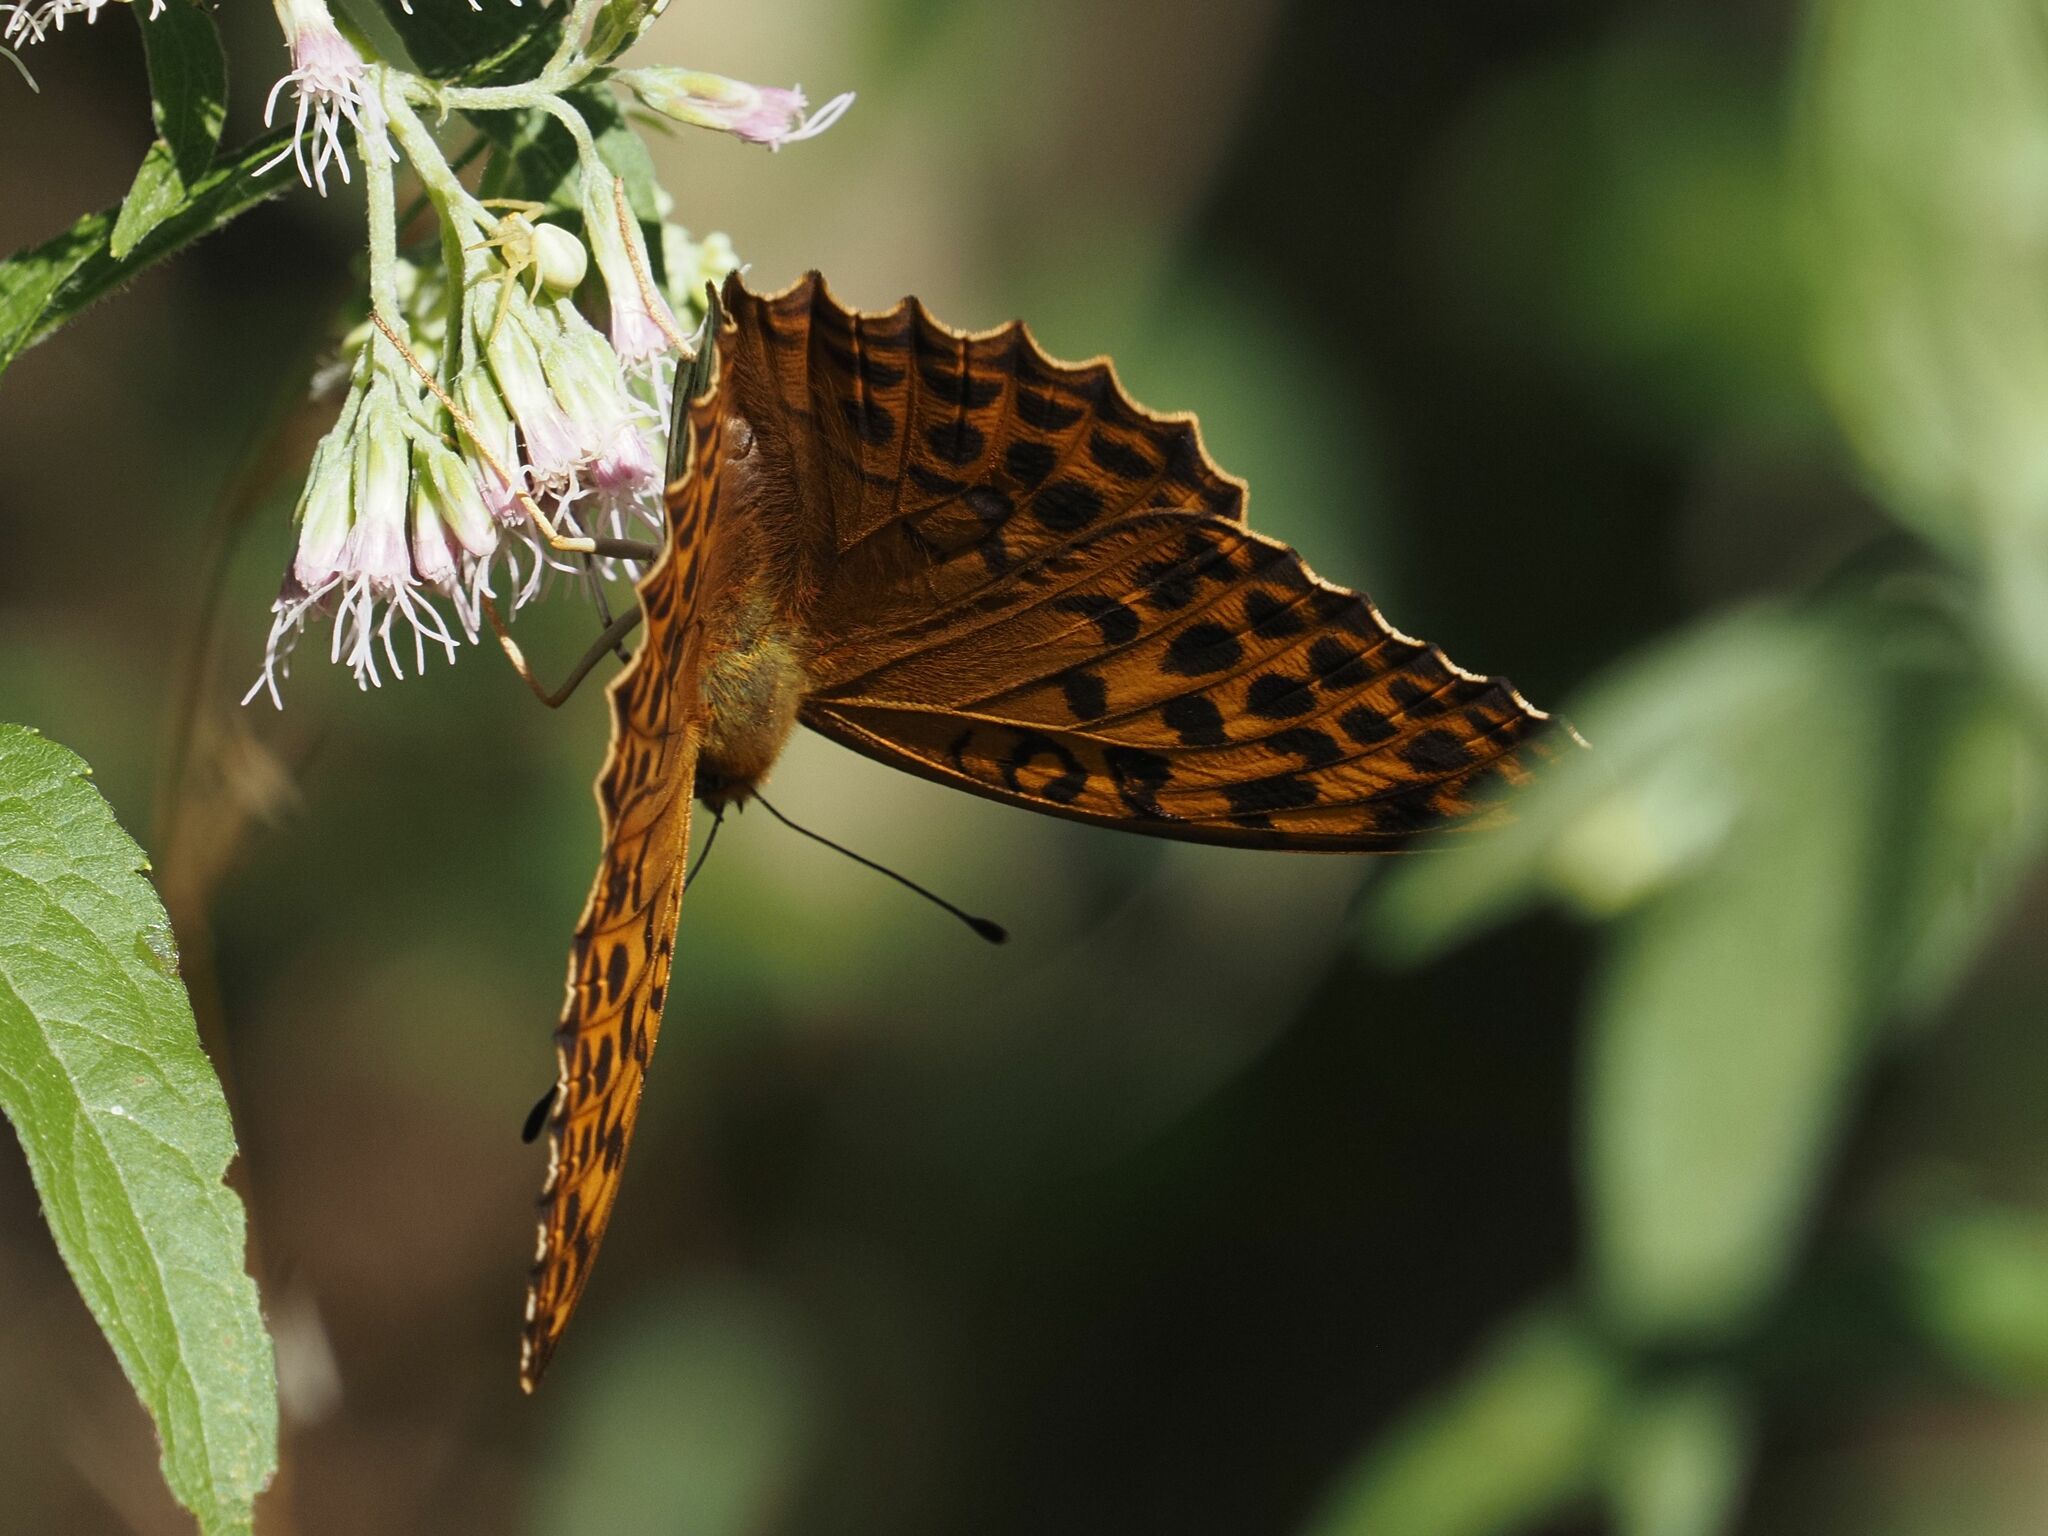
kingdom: Animalia
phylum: Arthropoda
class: Insecta
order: Lepidoptera
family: Nymphalidae
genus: Argynnis
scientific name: Argynnis paphia
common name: Silver-washed fritillary
